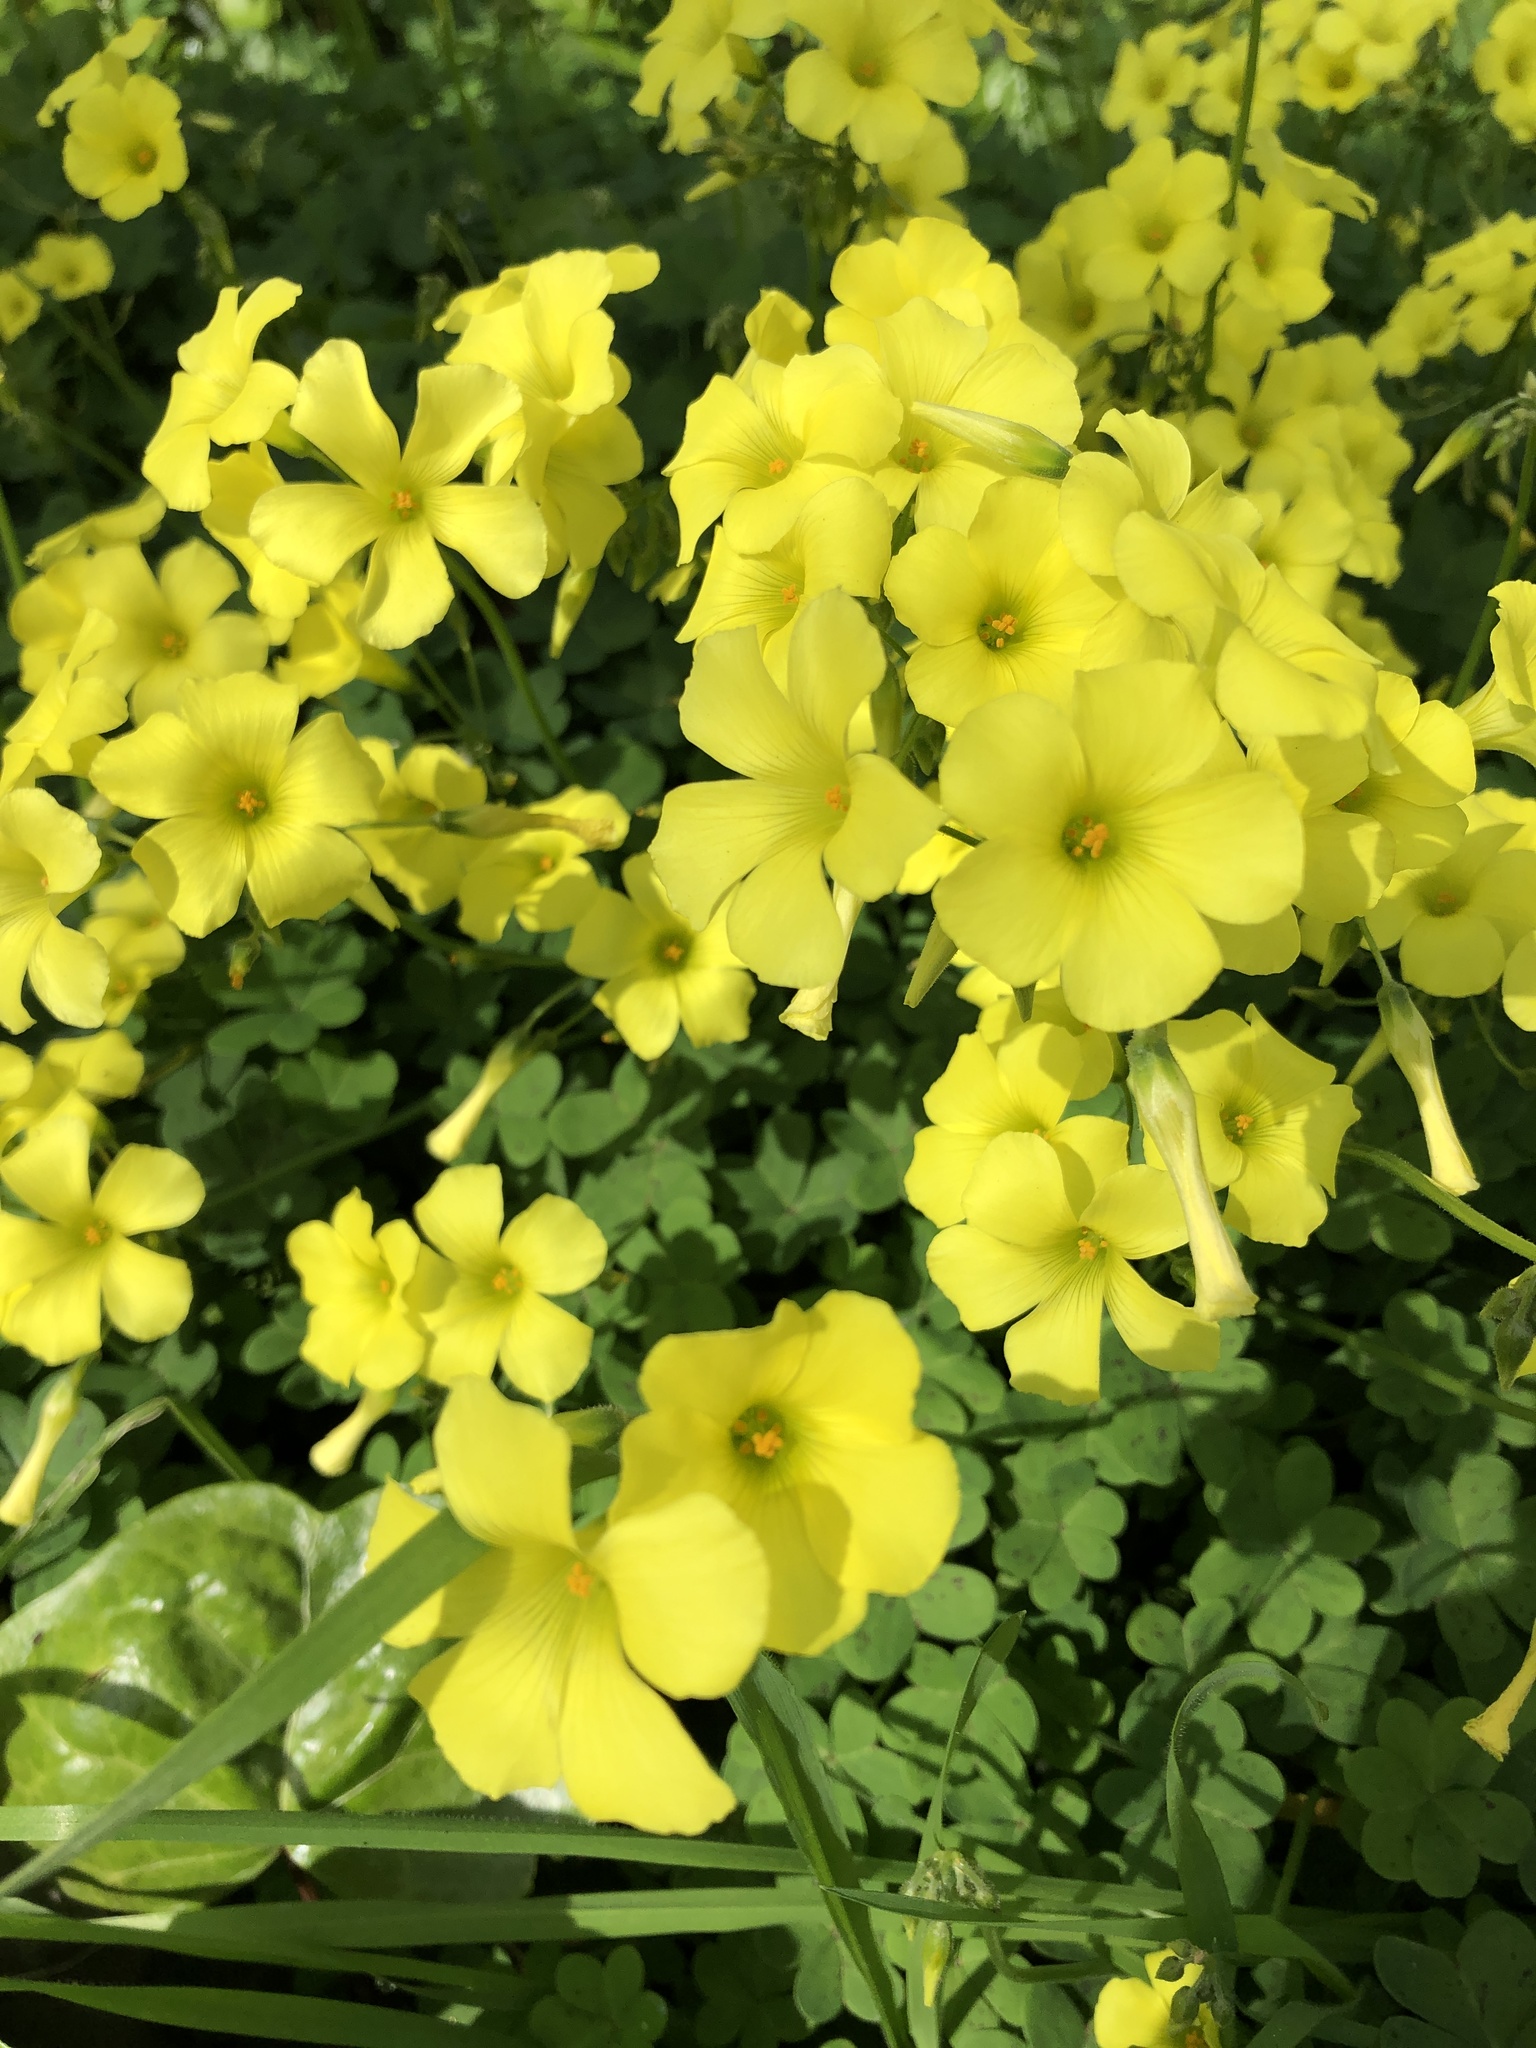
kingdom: Plantae
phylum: Tracheophyta
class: Magnoliopsida
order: Oxalidales
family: Oxalidaceae
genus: Oxalis
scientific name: Oxalis pes-caprae
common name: Bermuda-buttercup
